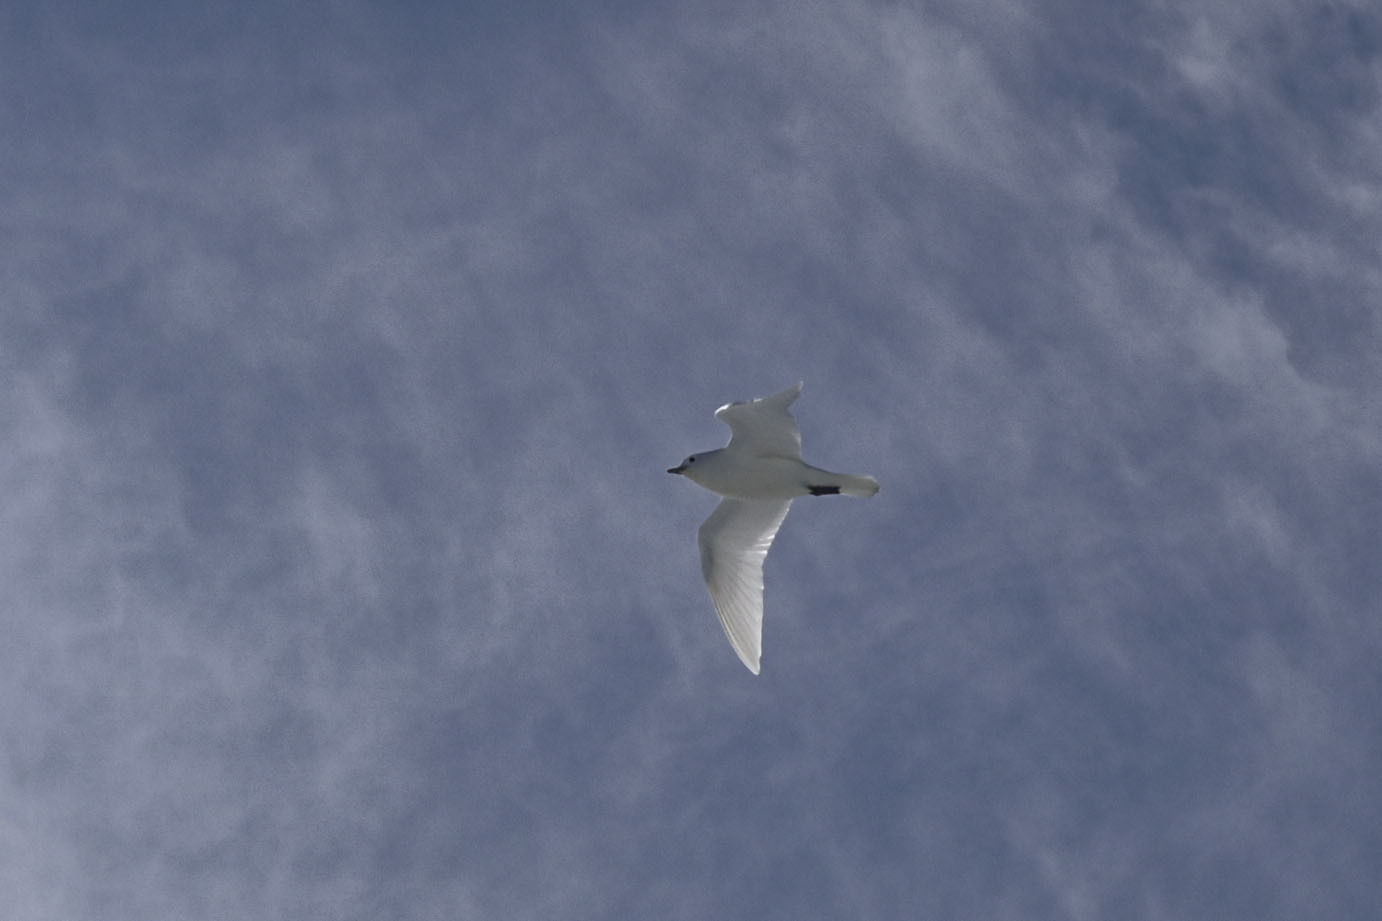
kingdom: Animalia
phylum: Chordata
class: Aves
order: Charadriiformes
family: Laridae
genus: Pagophila
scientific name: Pagophila eburnea
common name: Ivory gull
